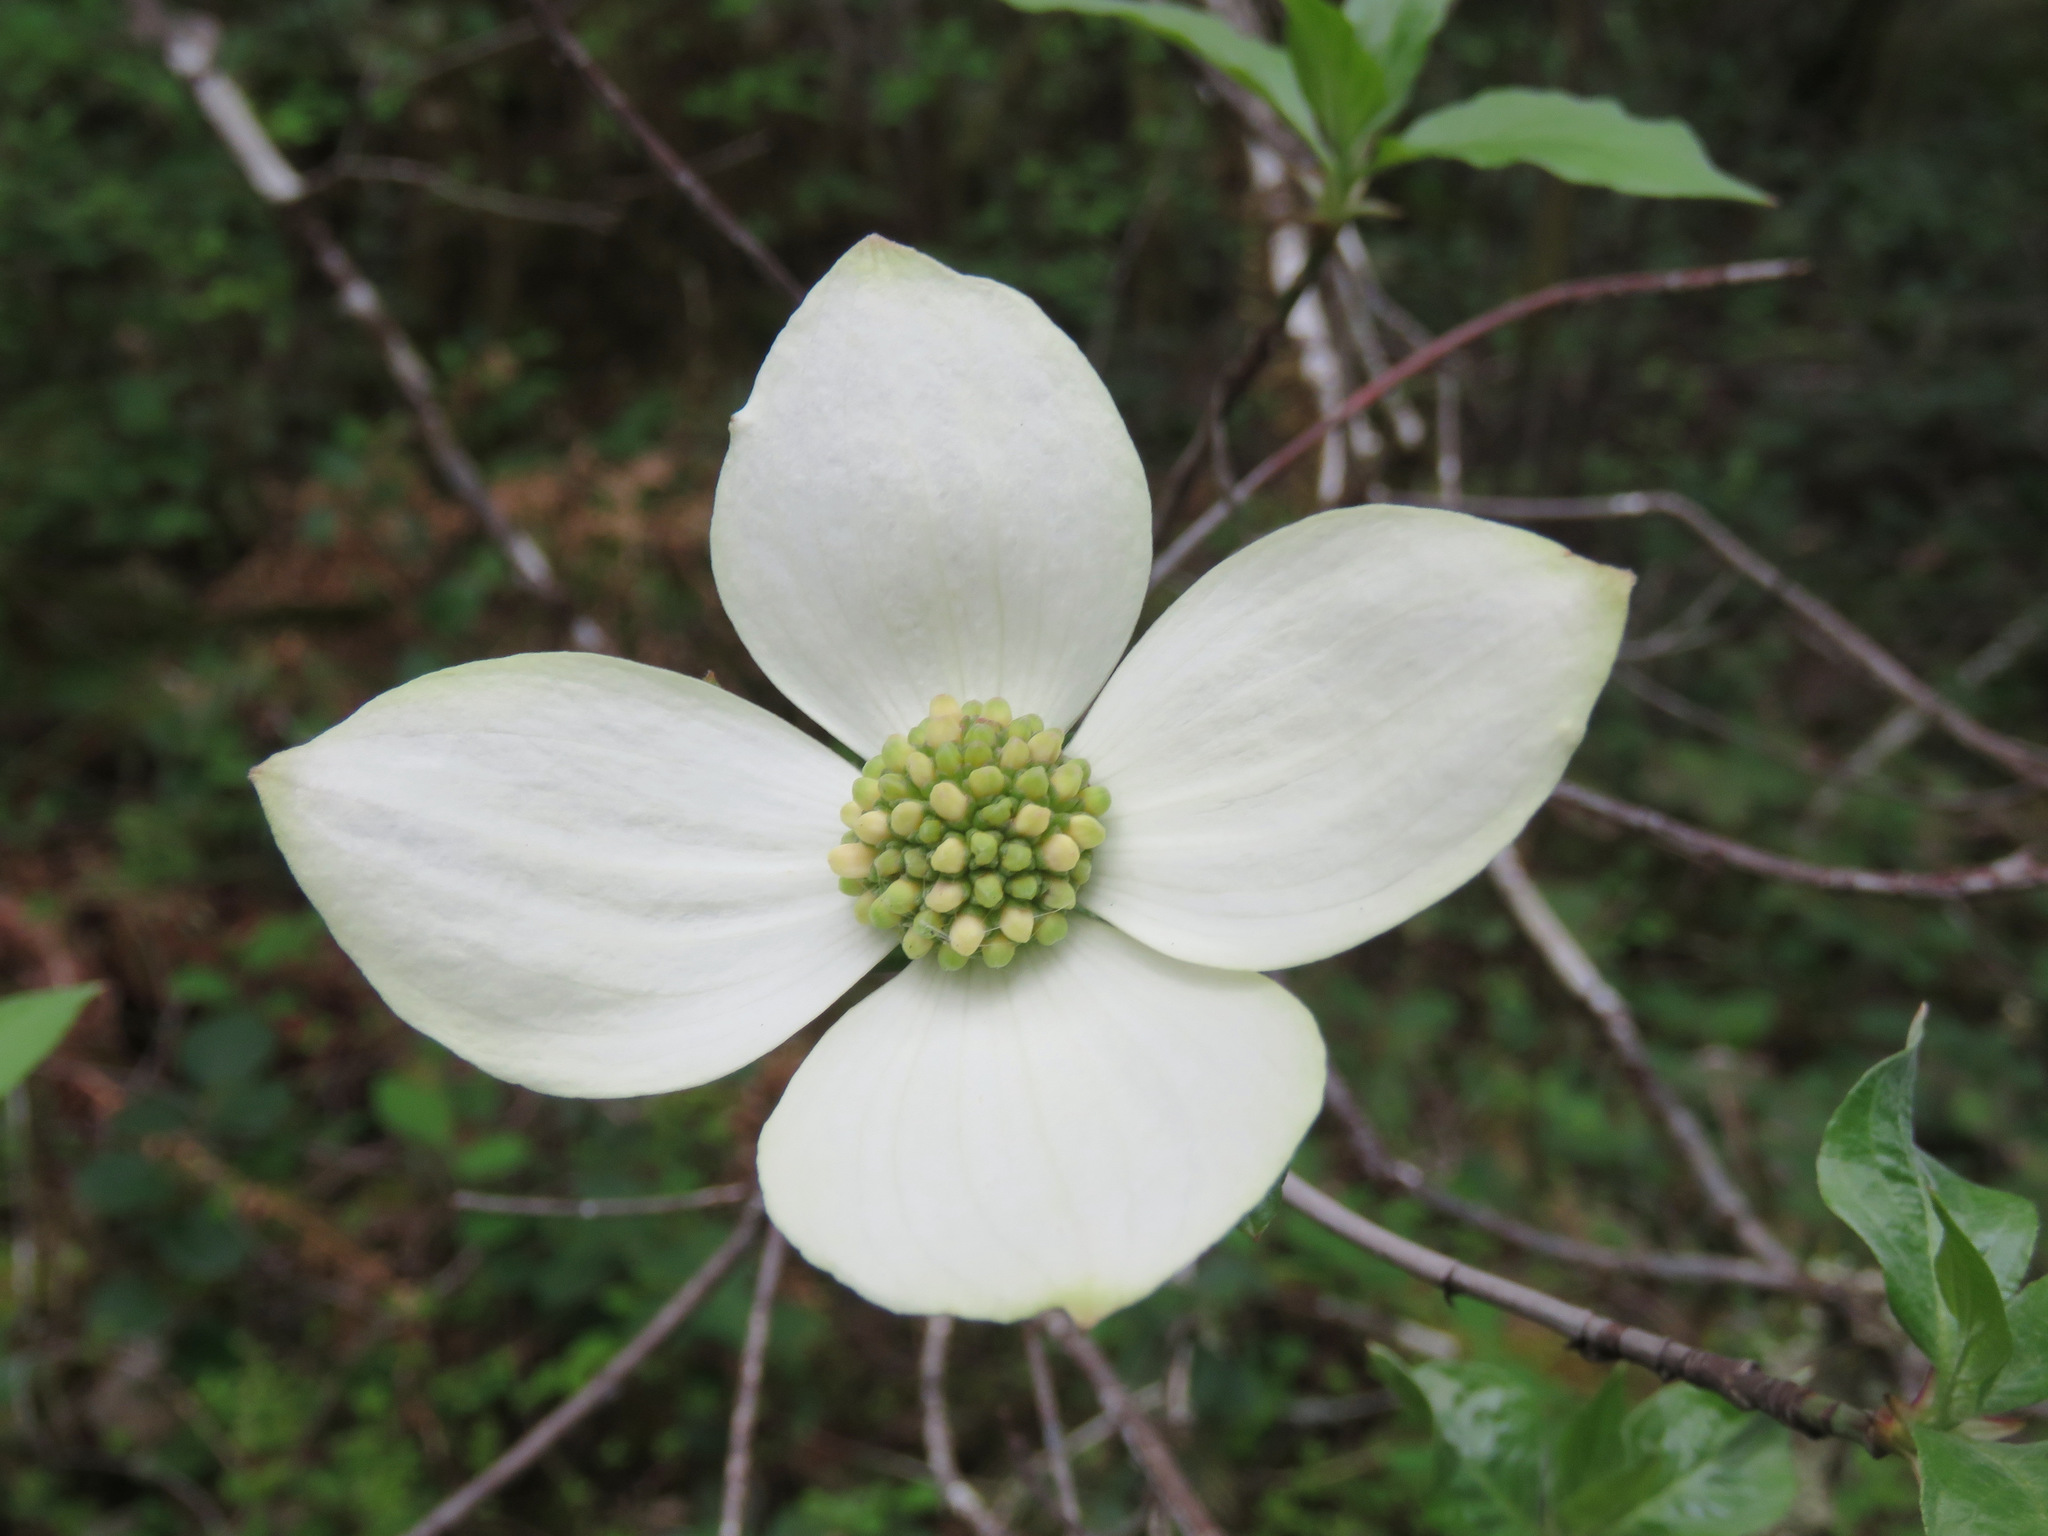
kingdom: Plantae
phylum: Tracheophyta
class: Magnoliopsida
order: Cornales
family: Cornaceae
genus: Cornus
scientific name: Cornus nuttallii
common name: Pacific dogwood
